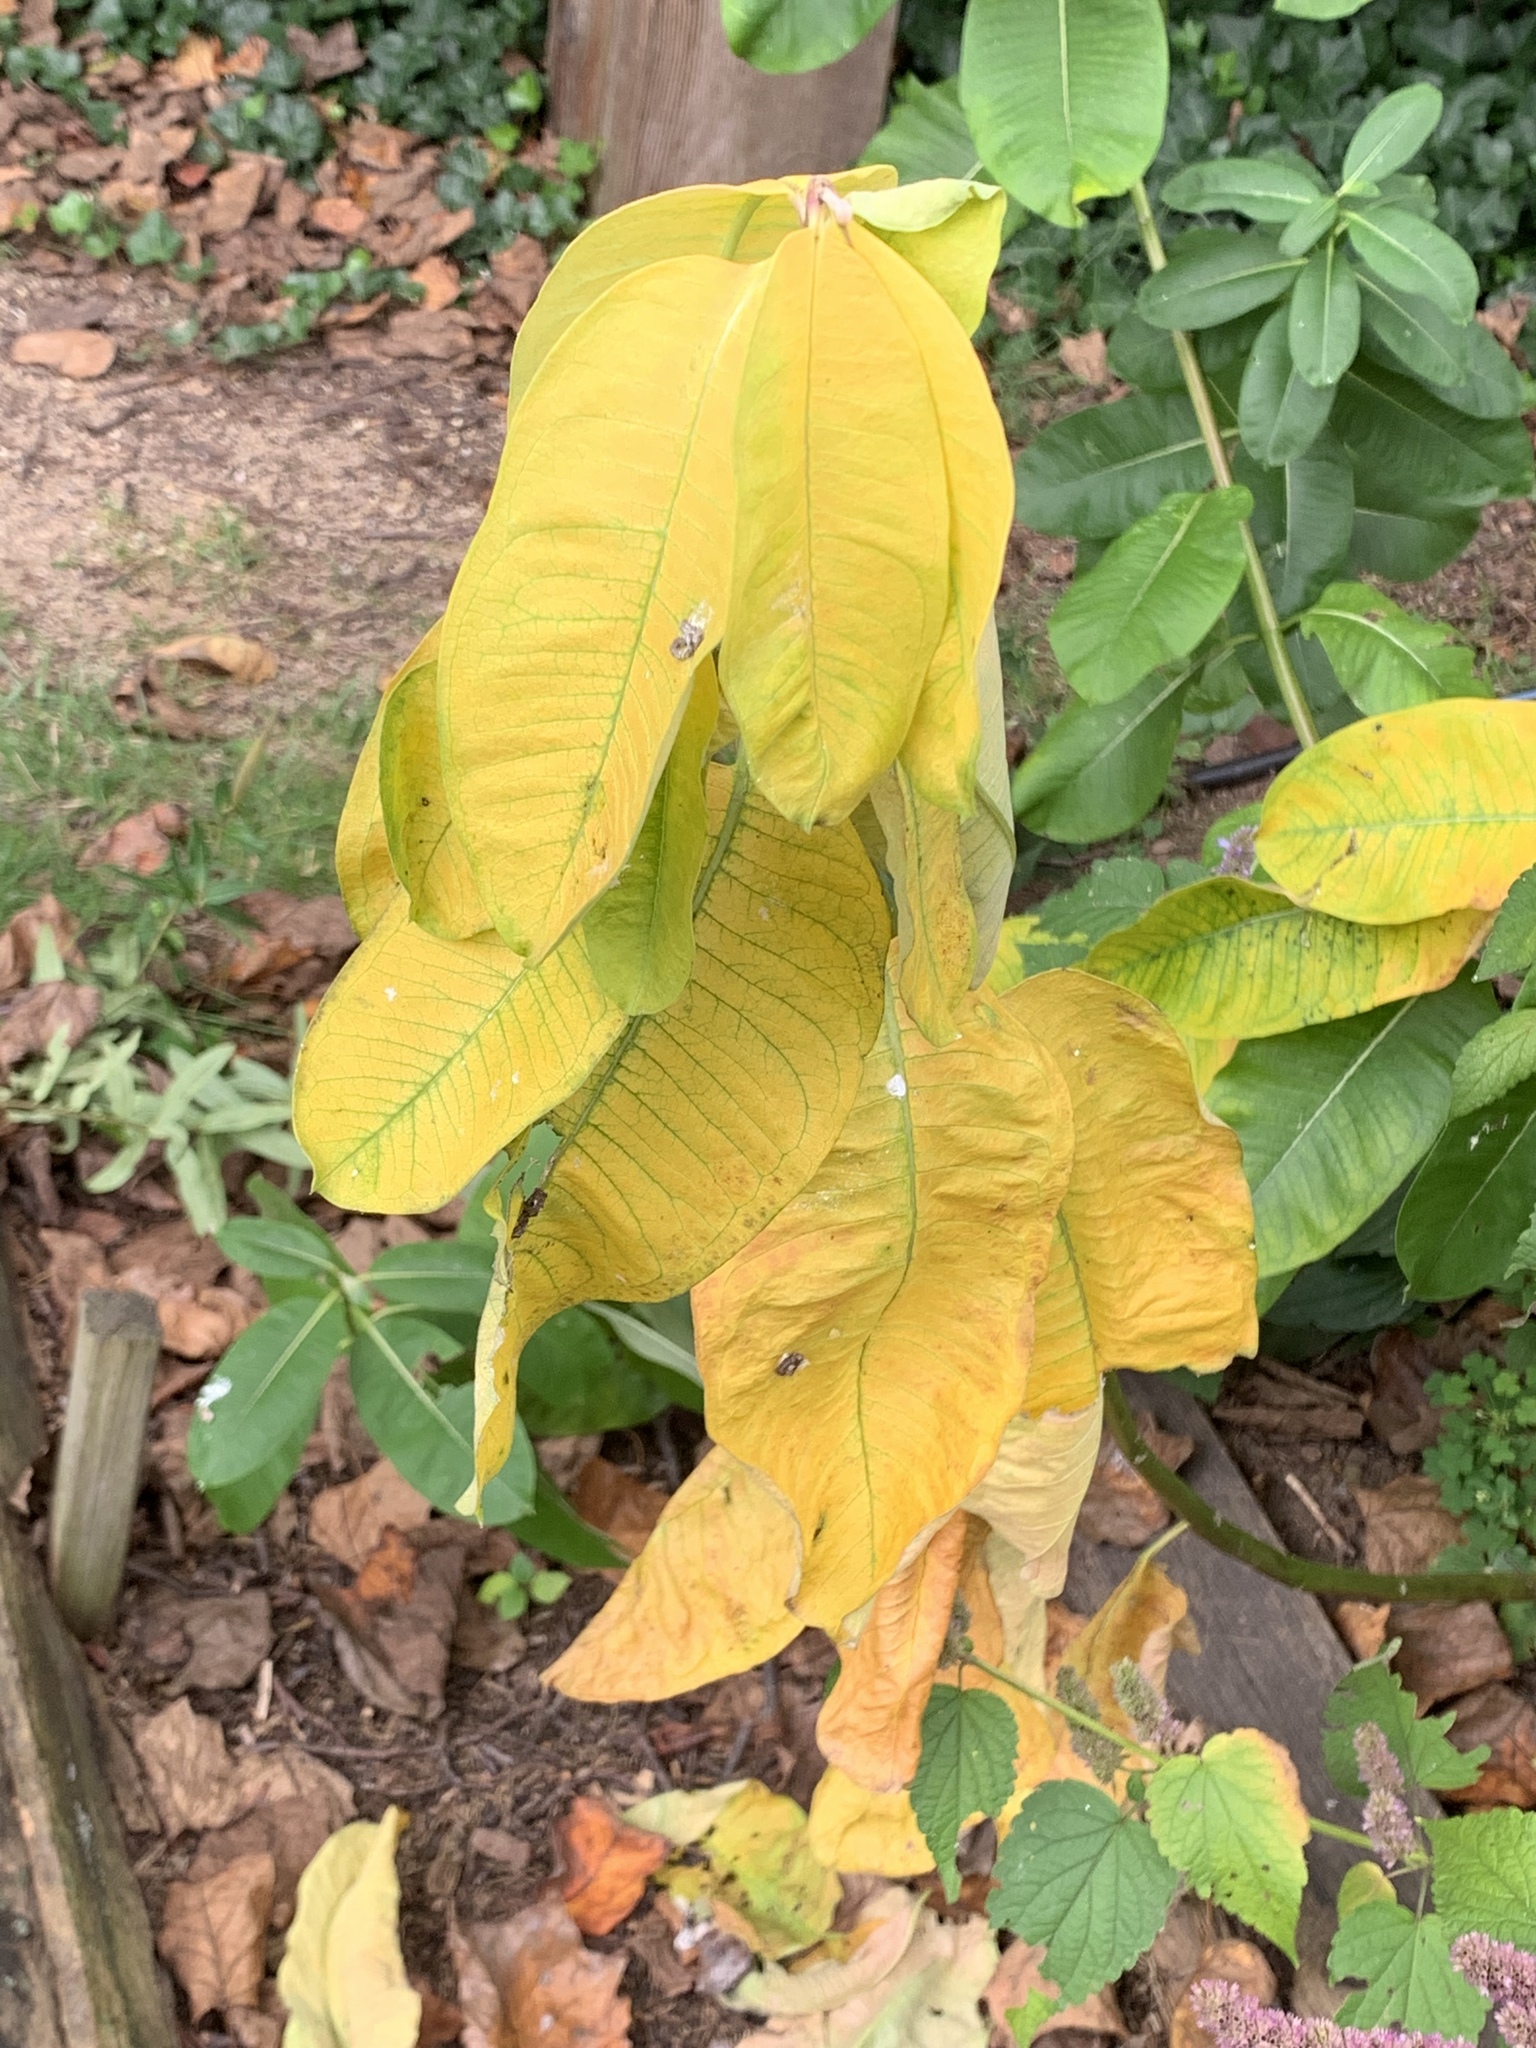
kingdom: Plantae
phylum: Tracheophyta
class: Magnoliopsida
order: Gentianales
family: Apocynaceae
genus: Asclepias
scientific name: Asclepias syriaca
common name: Common milkweed
